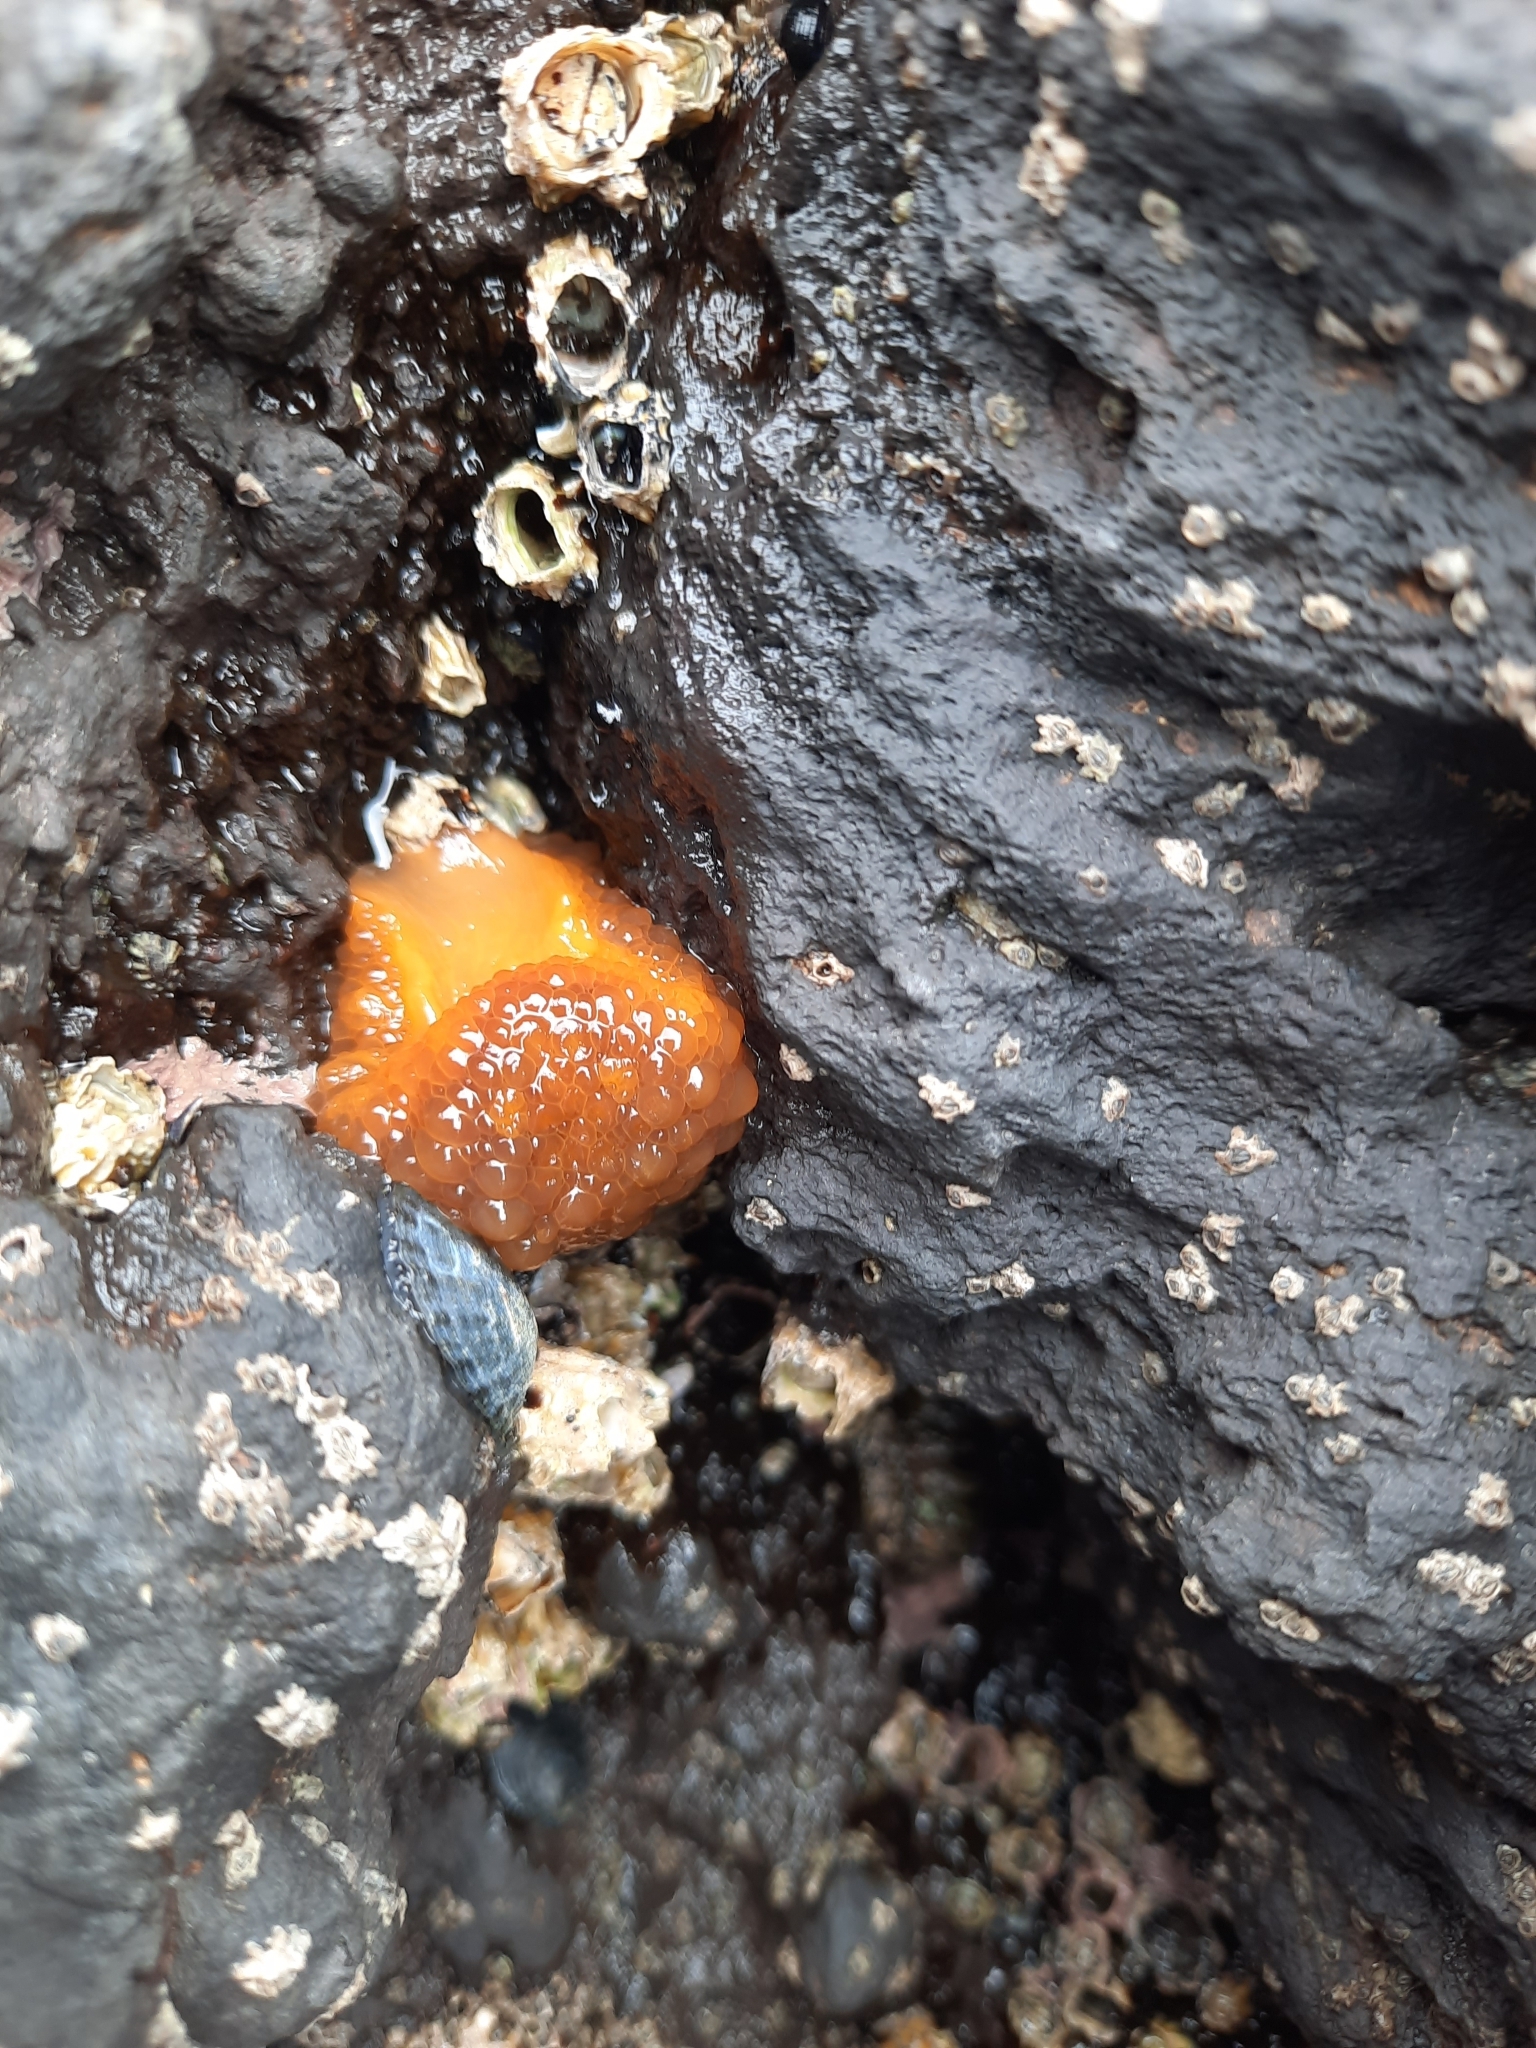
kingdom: Animalia
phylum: Mollusca
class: Gastropoda
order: Nudibranchia
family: Dorididae
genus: Doris
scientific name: Doris wellingtonensis
